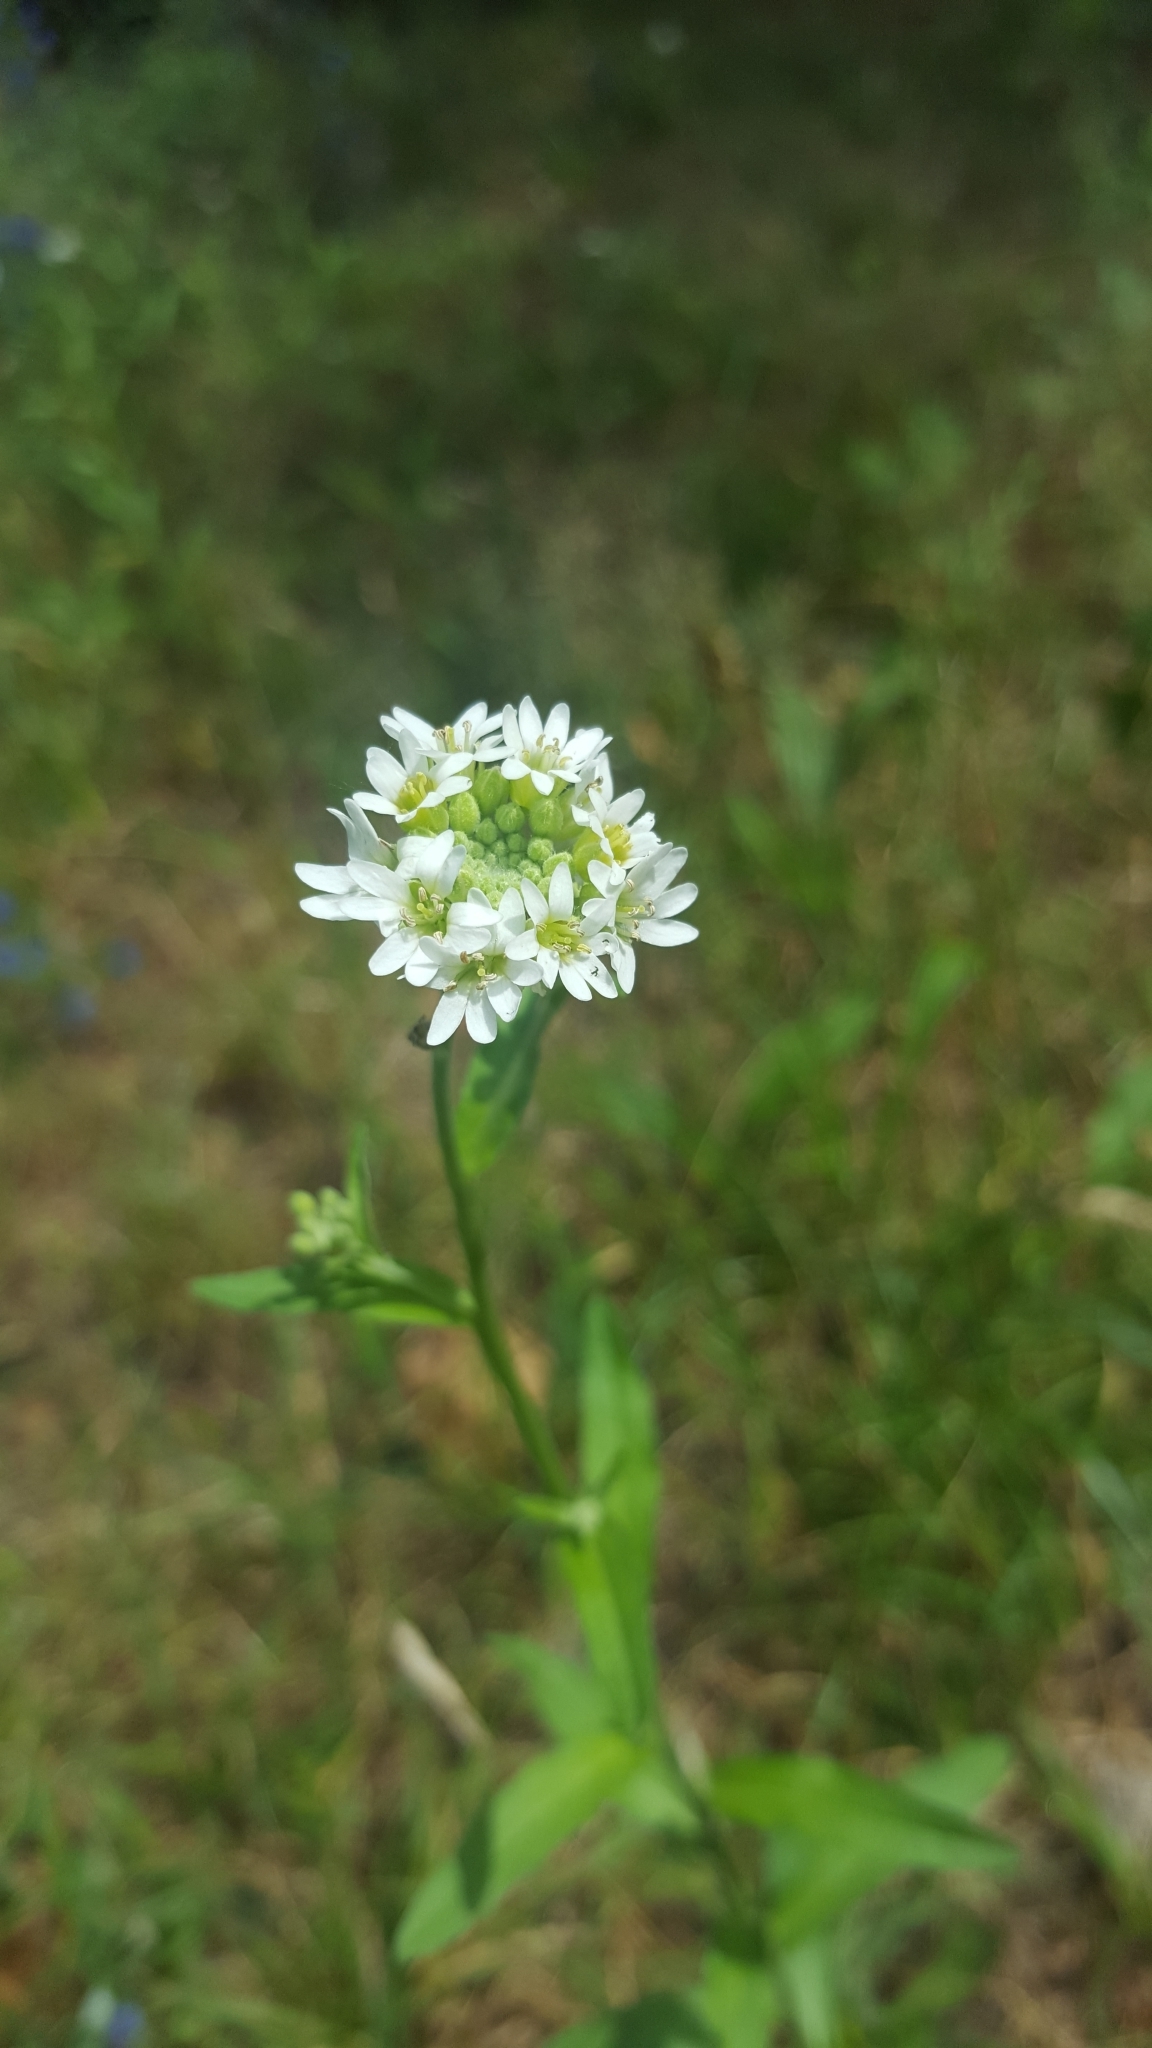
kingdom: Plantae
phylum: Tracheophyta
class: Magnoliopsida
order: Brassicales
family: Brassicaceae
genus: Berteroa
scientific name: Berteroa incana
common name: Hoary alison
